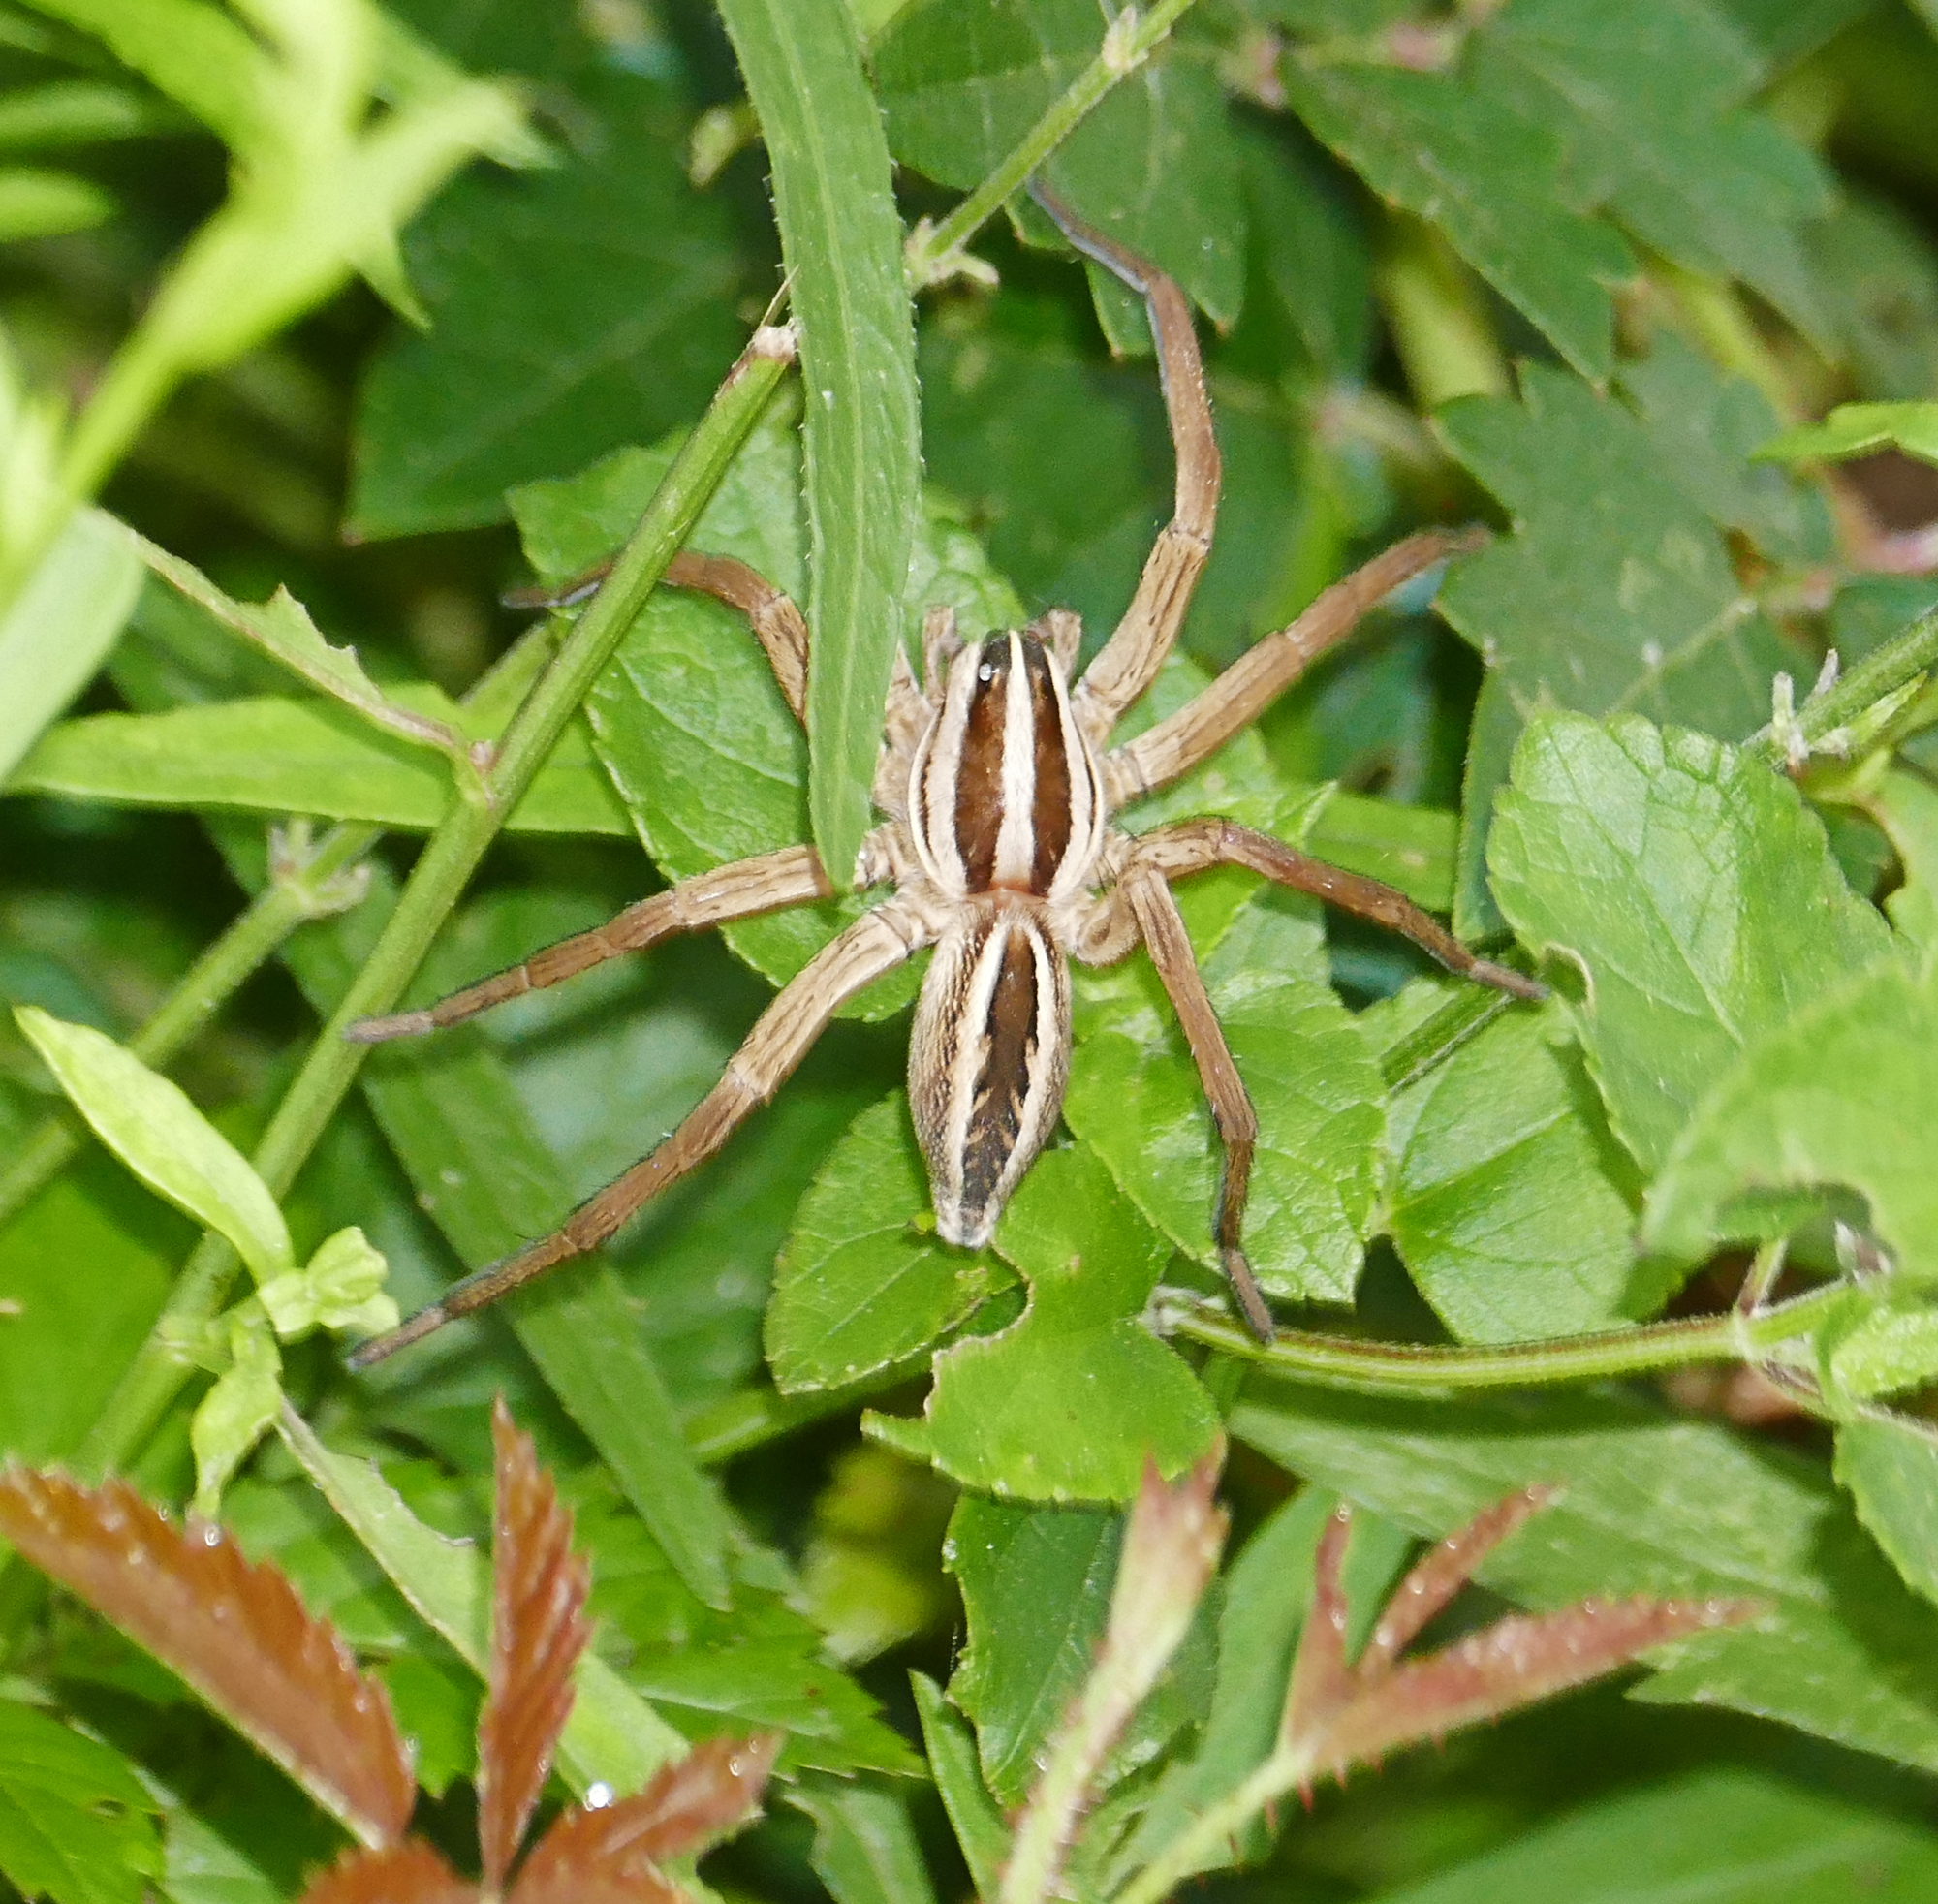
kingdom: Animalia
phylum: Arthropoda
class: Arachnida
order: Araneae
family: Lycosidae
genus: Rabidosa
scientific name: Rabidosa rabida
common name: Rabid wolf spider
